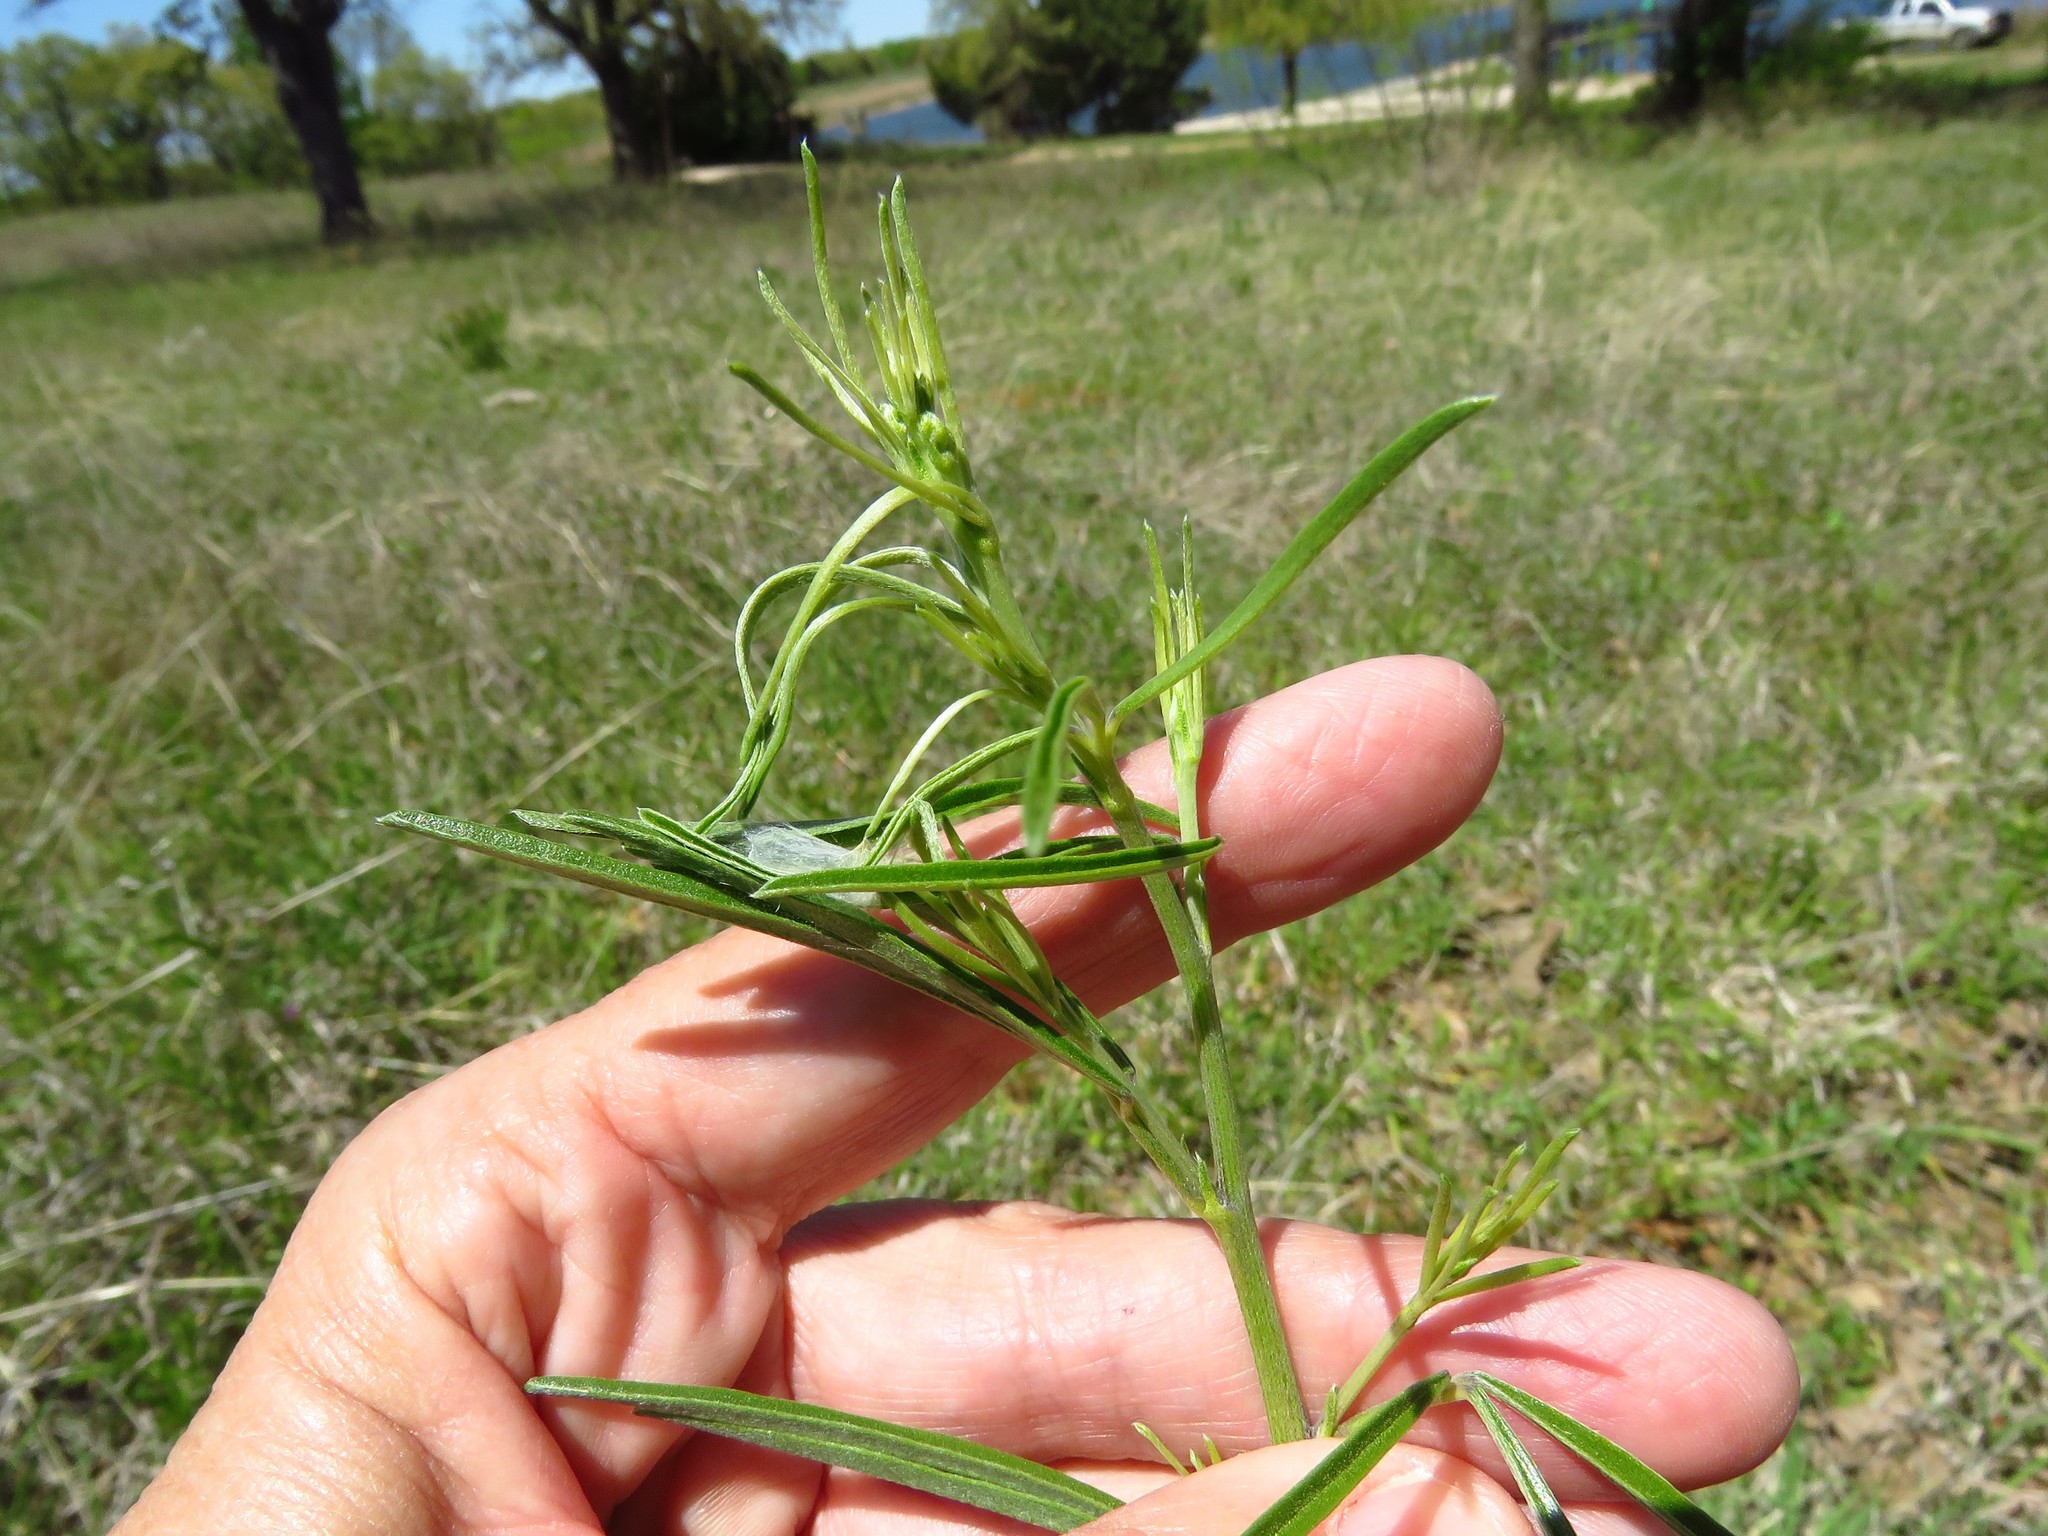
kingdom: Plantae
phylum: Tracheophyta
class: Magnoliopsida
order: Fabales
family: Fabaceae
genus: Pediomelum
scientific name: Pediomelum linearifolium
